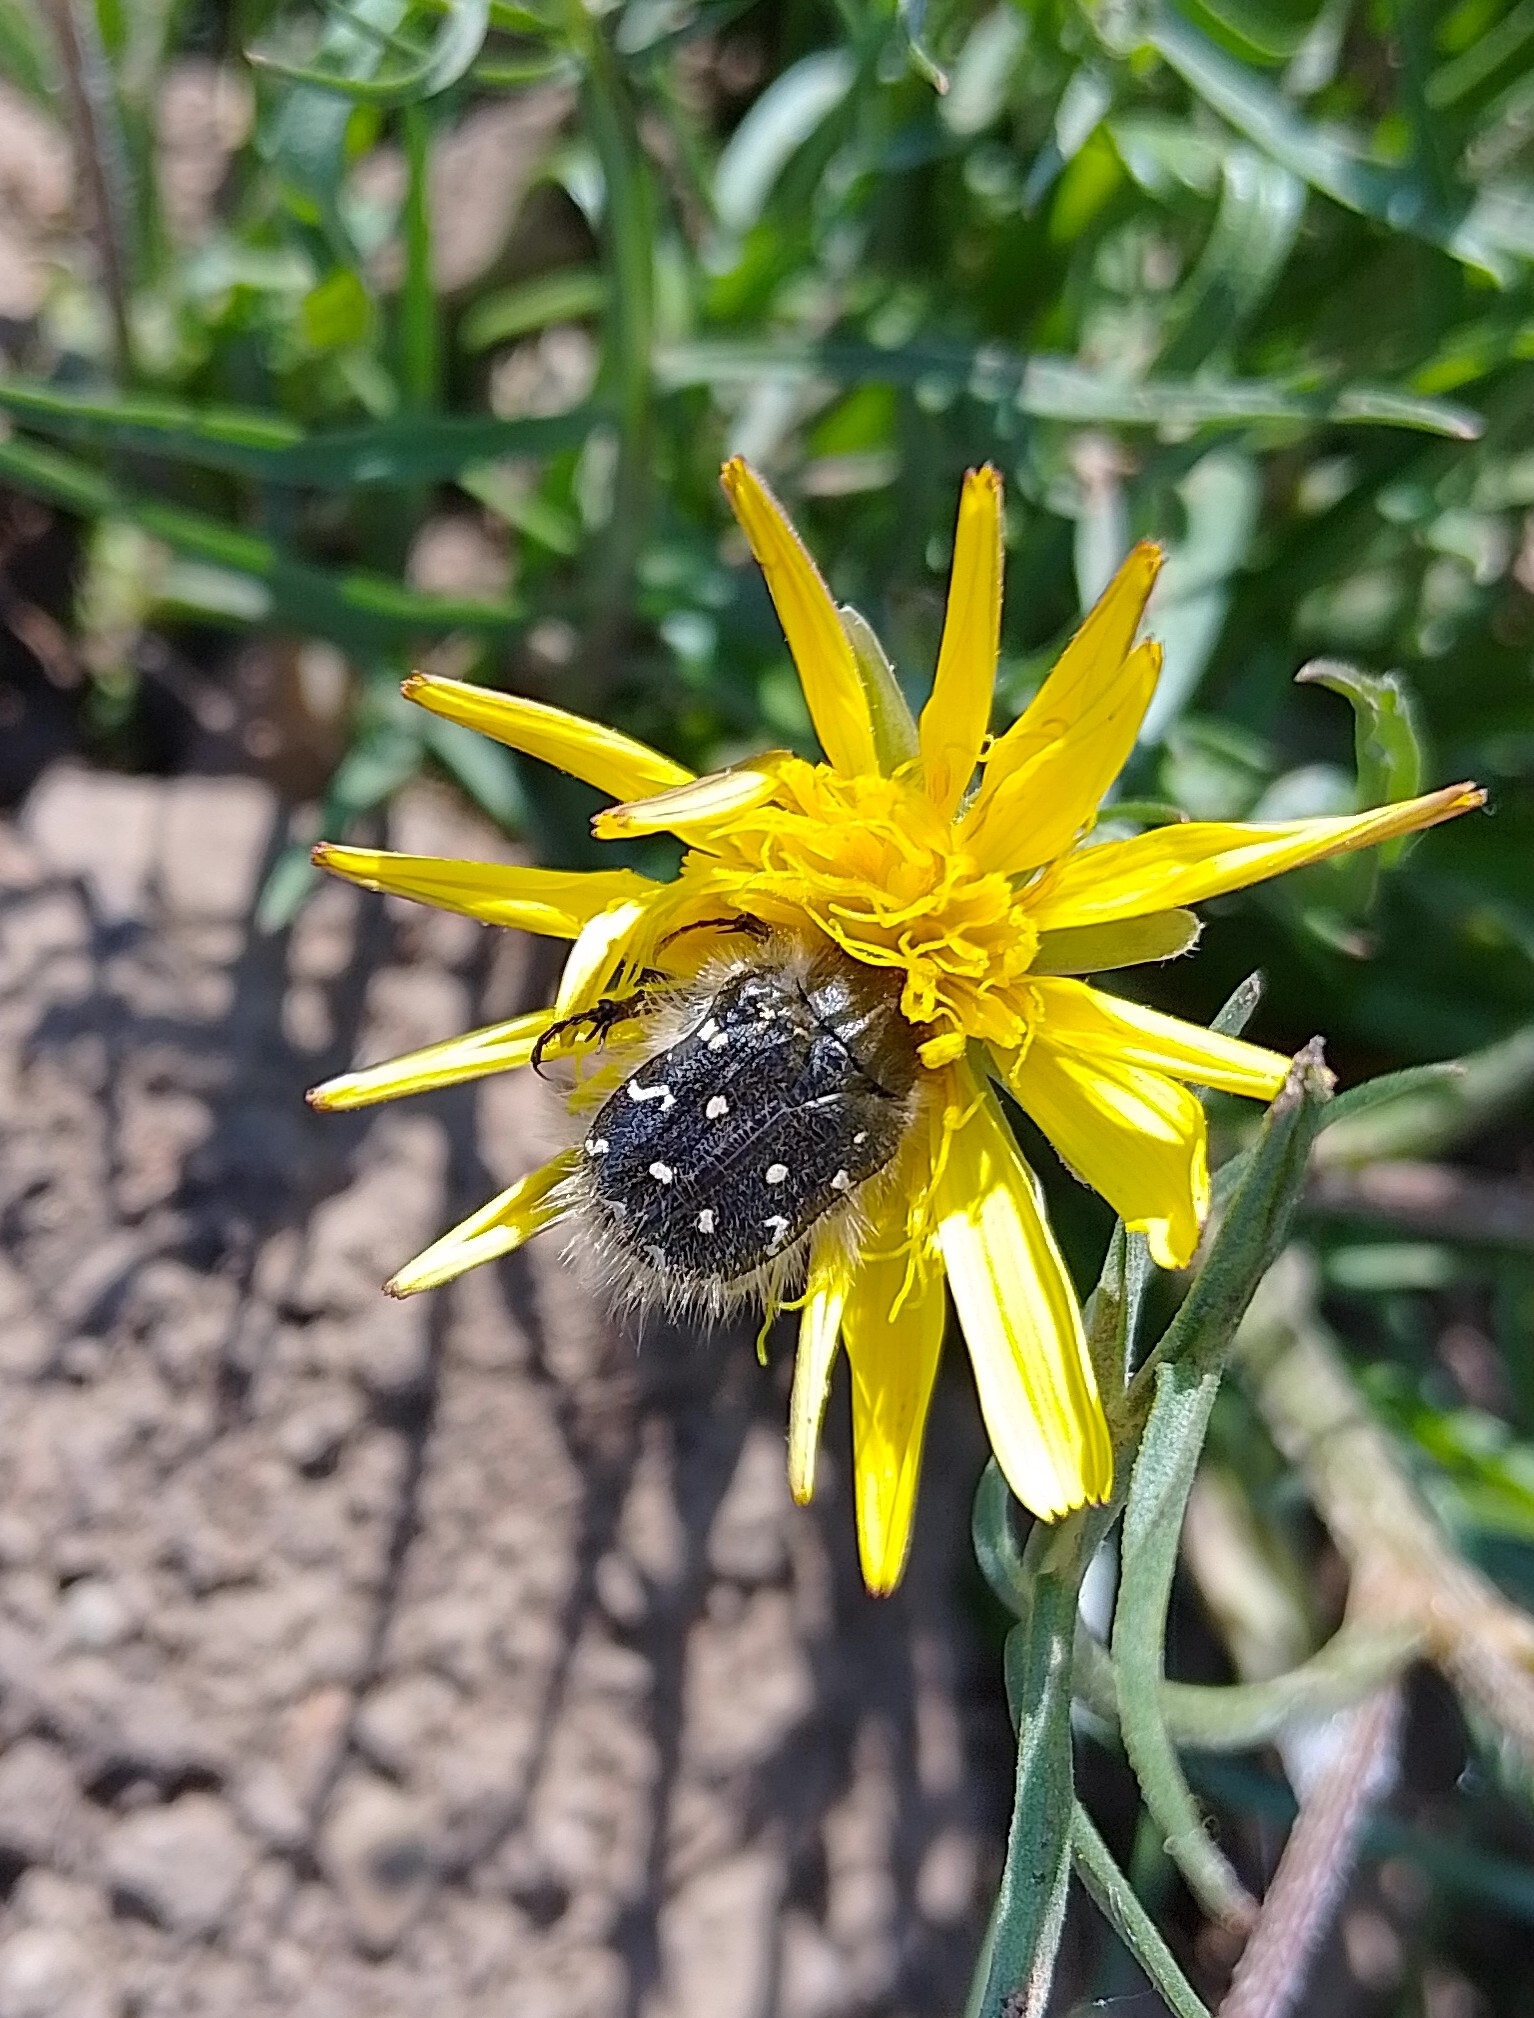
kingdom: Animalia
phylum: Arthropoda
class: Insecta
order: Coleoptera
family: Scarabaeidae
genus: Tropinota
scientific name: Tropinota hirta
